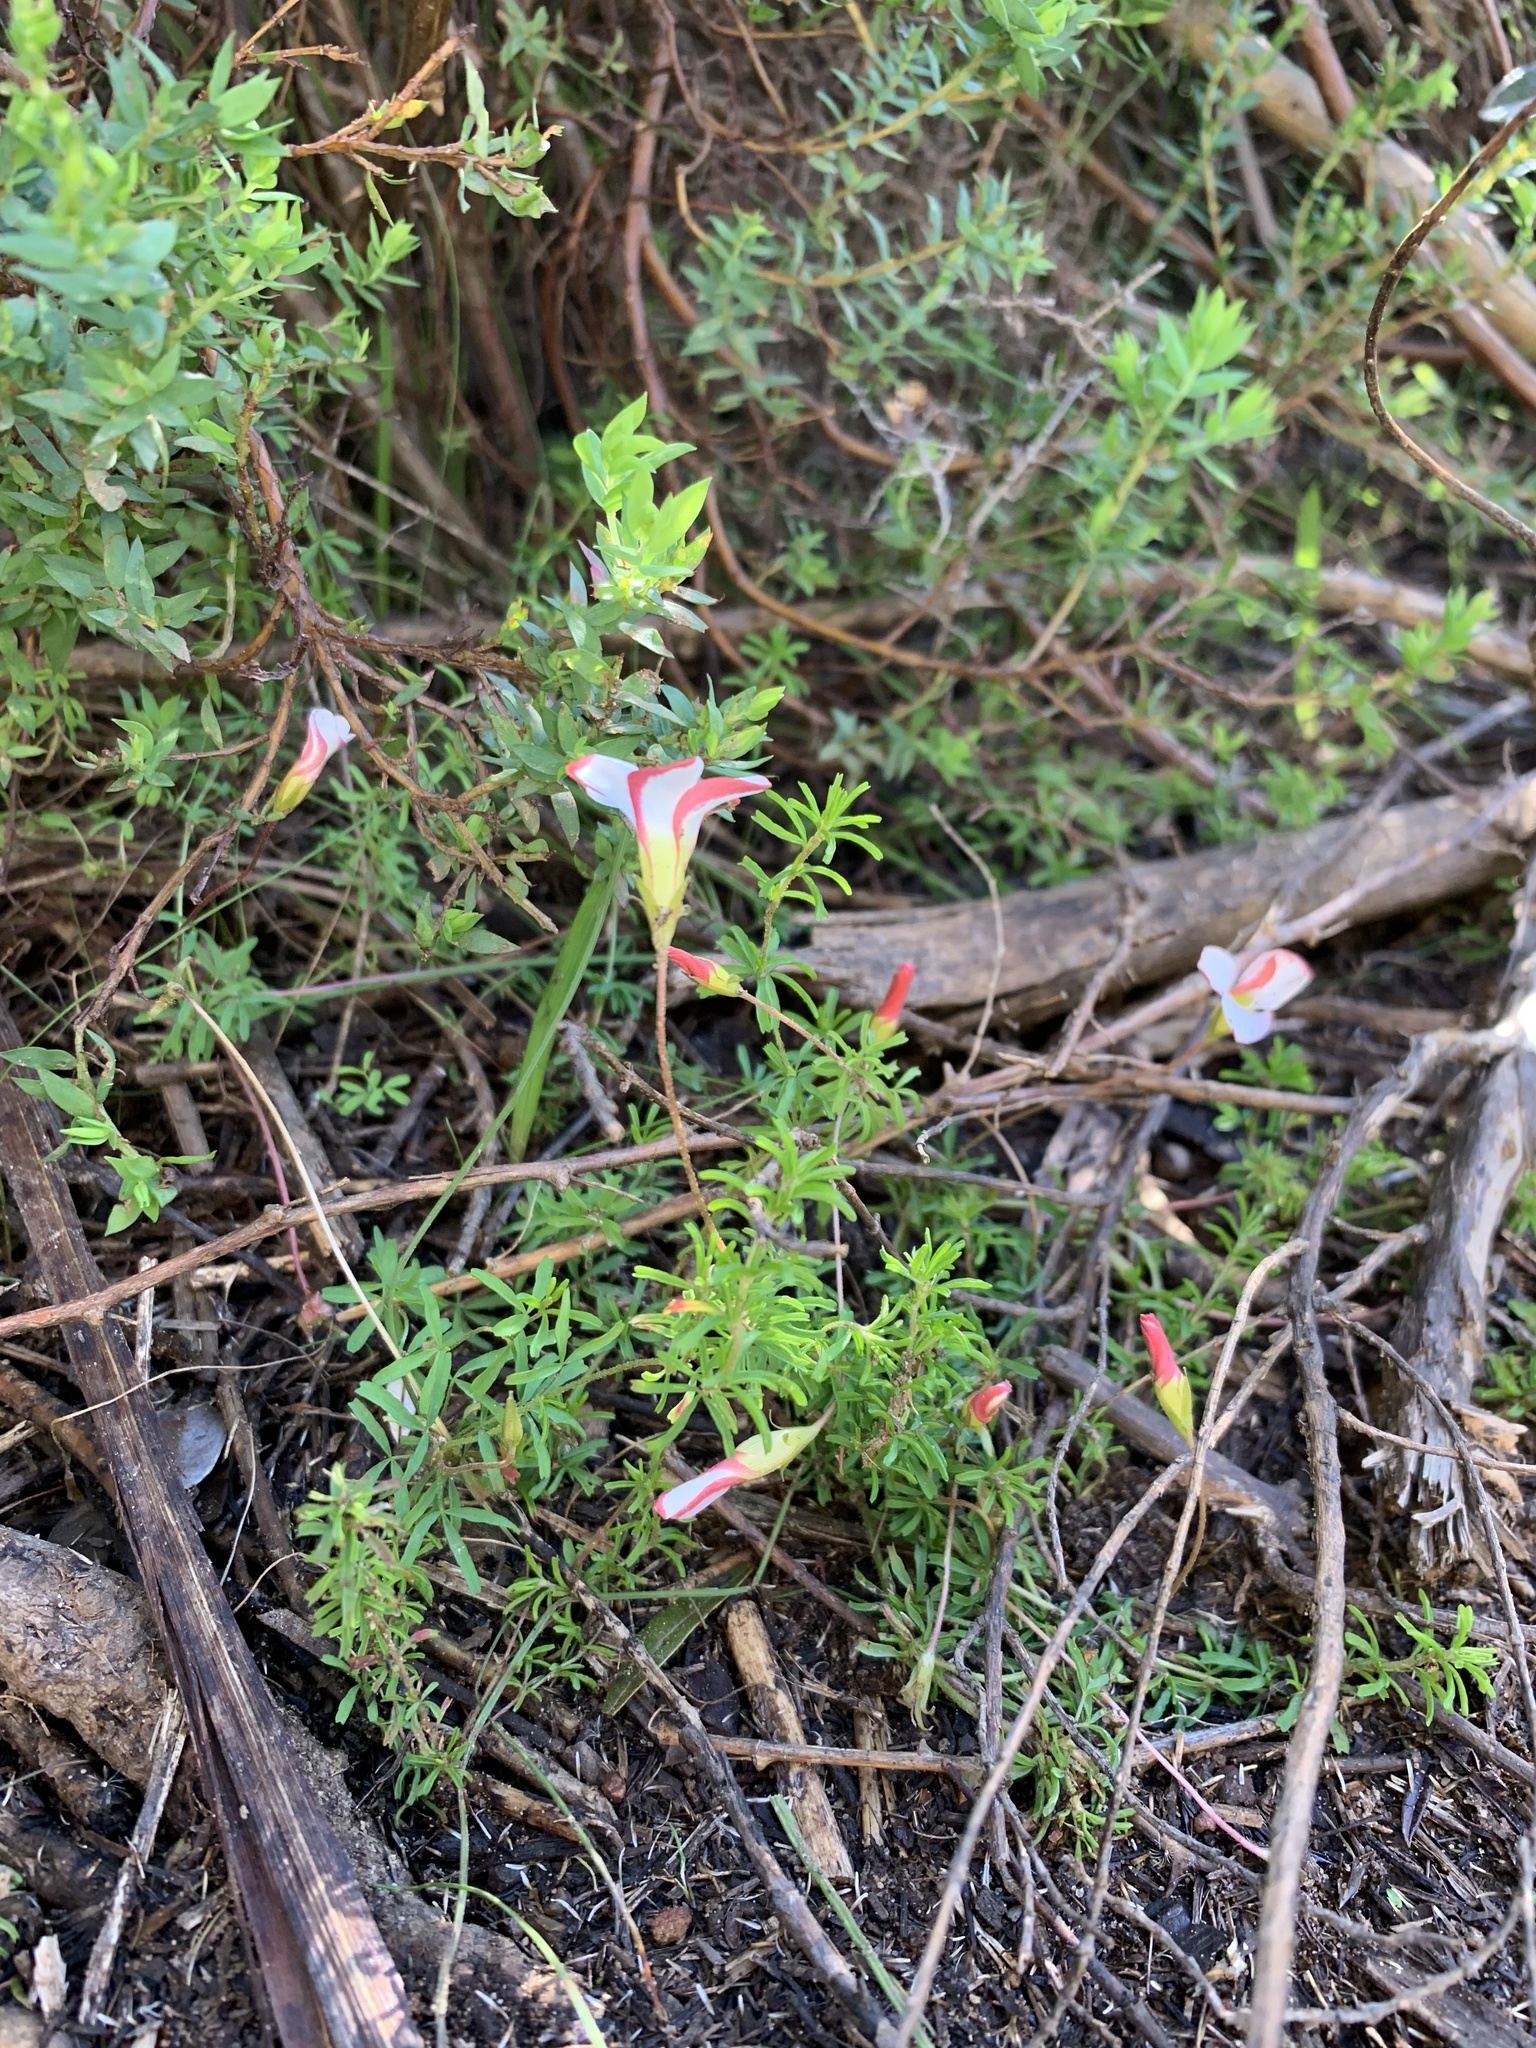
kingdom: Plantae
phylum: Tracheophyta
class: Magnoliopsida
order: Oxalidales
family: Oxalidaceae
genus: Oxalis
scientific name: Oxalis tenuifolia
